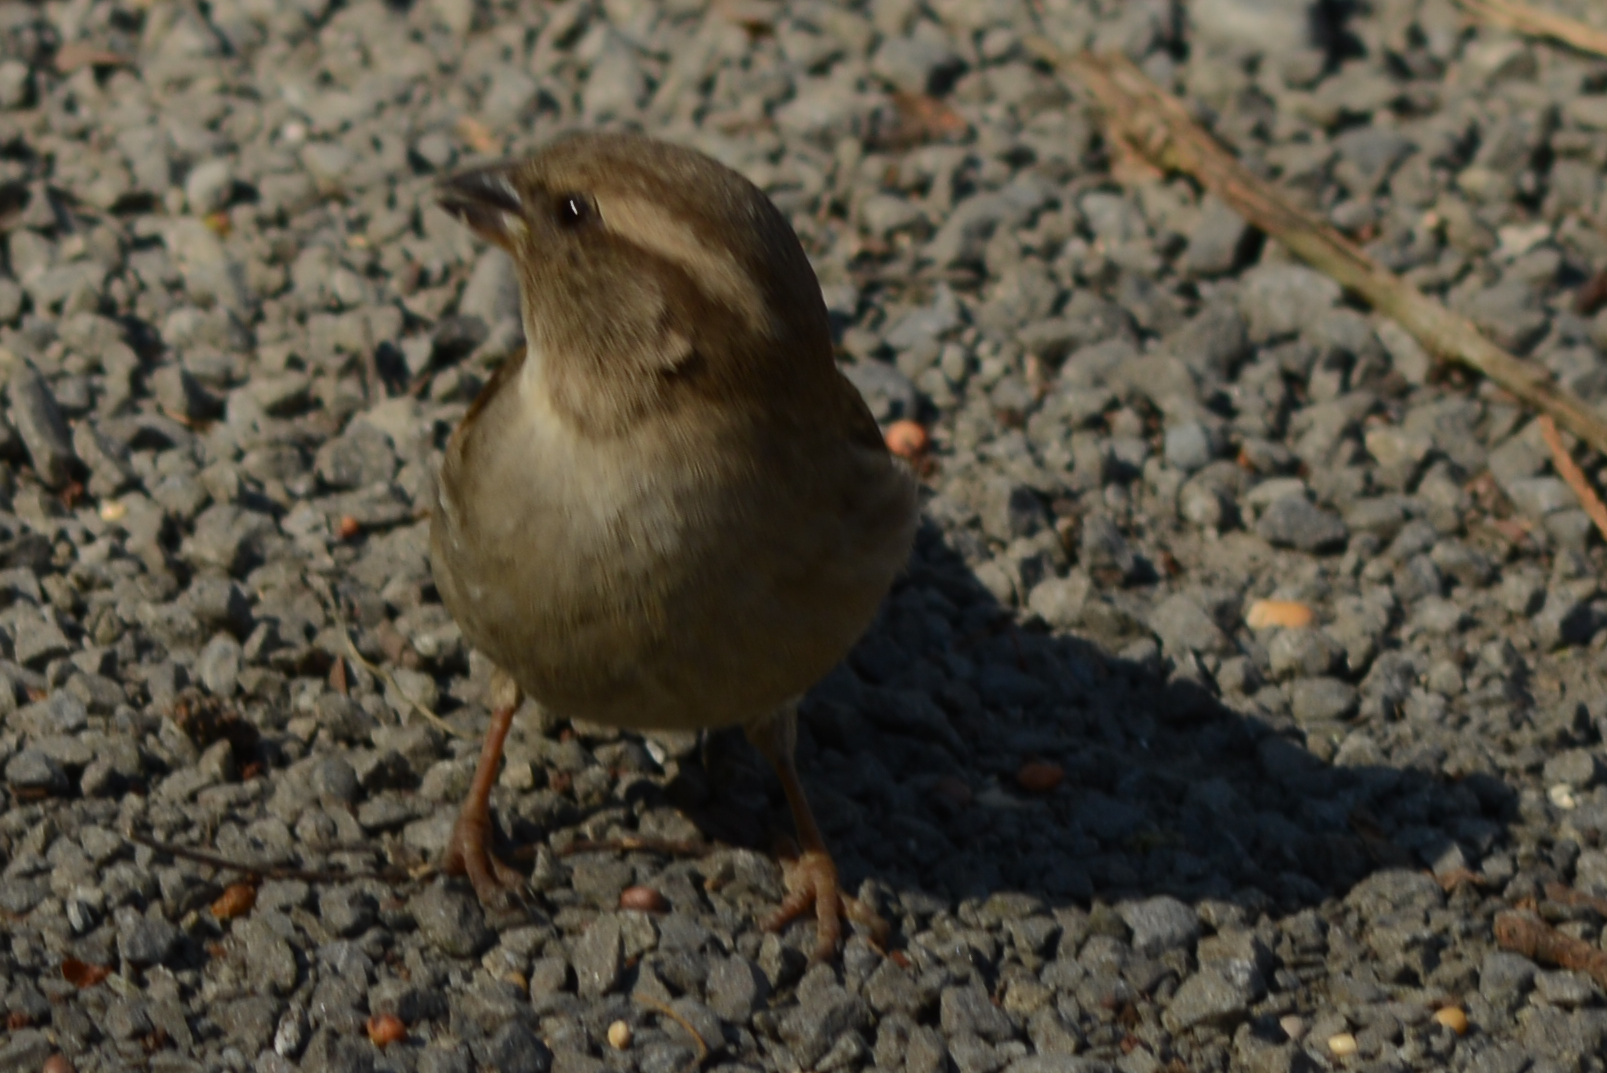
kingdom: Animalia
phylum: Chordata
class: Aves
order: Passeriformes
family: Passeridae
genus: Passer
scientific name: Passer domesticus
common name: House sparrow
